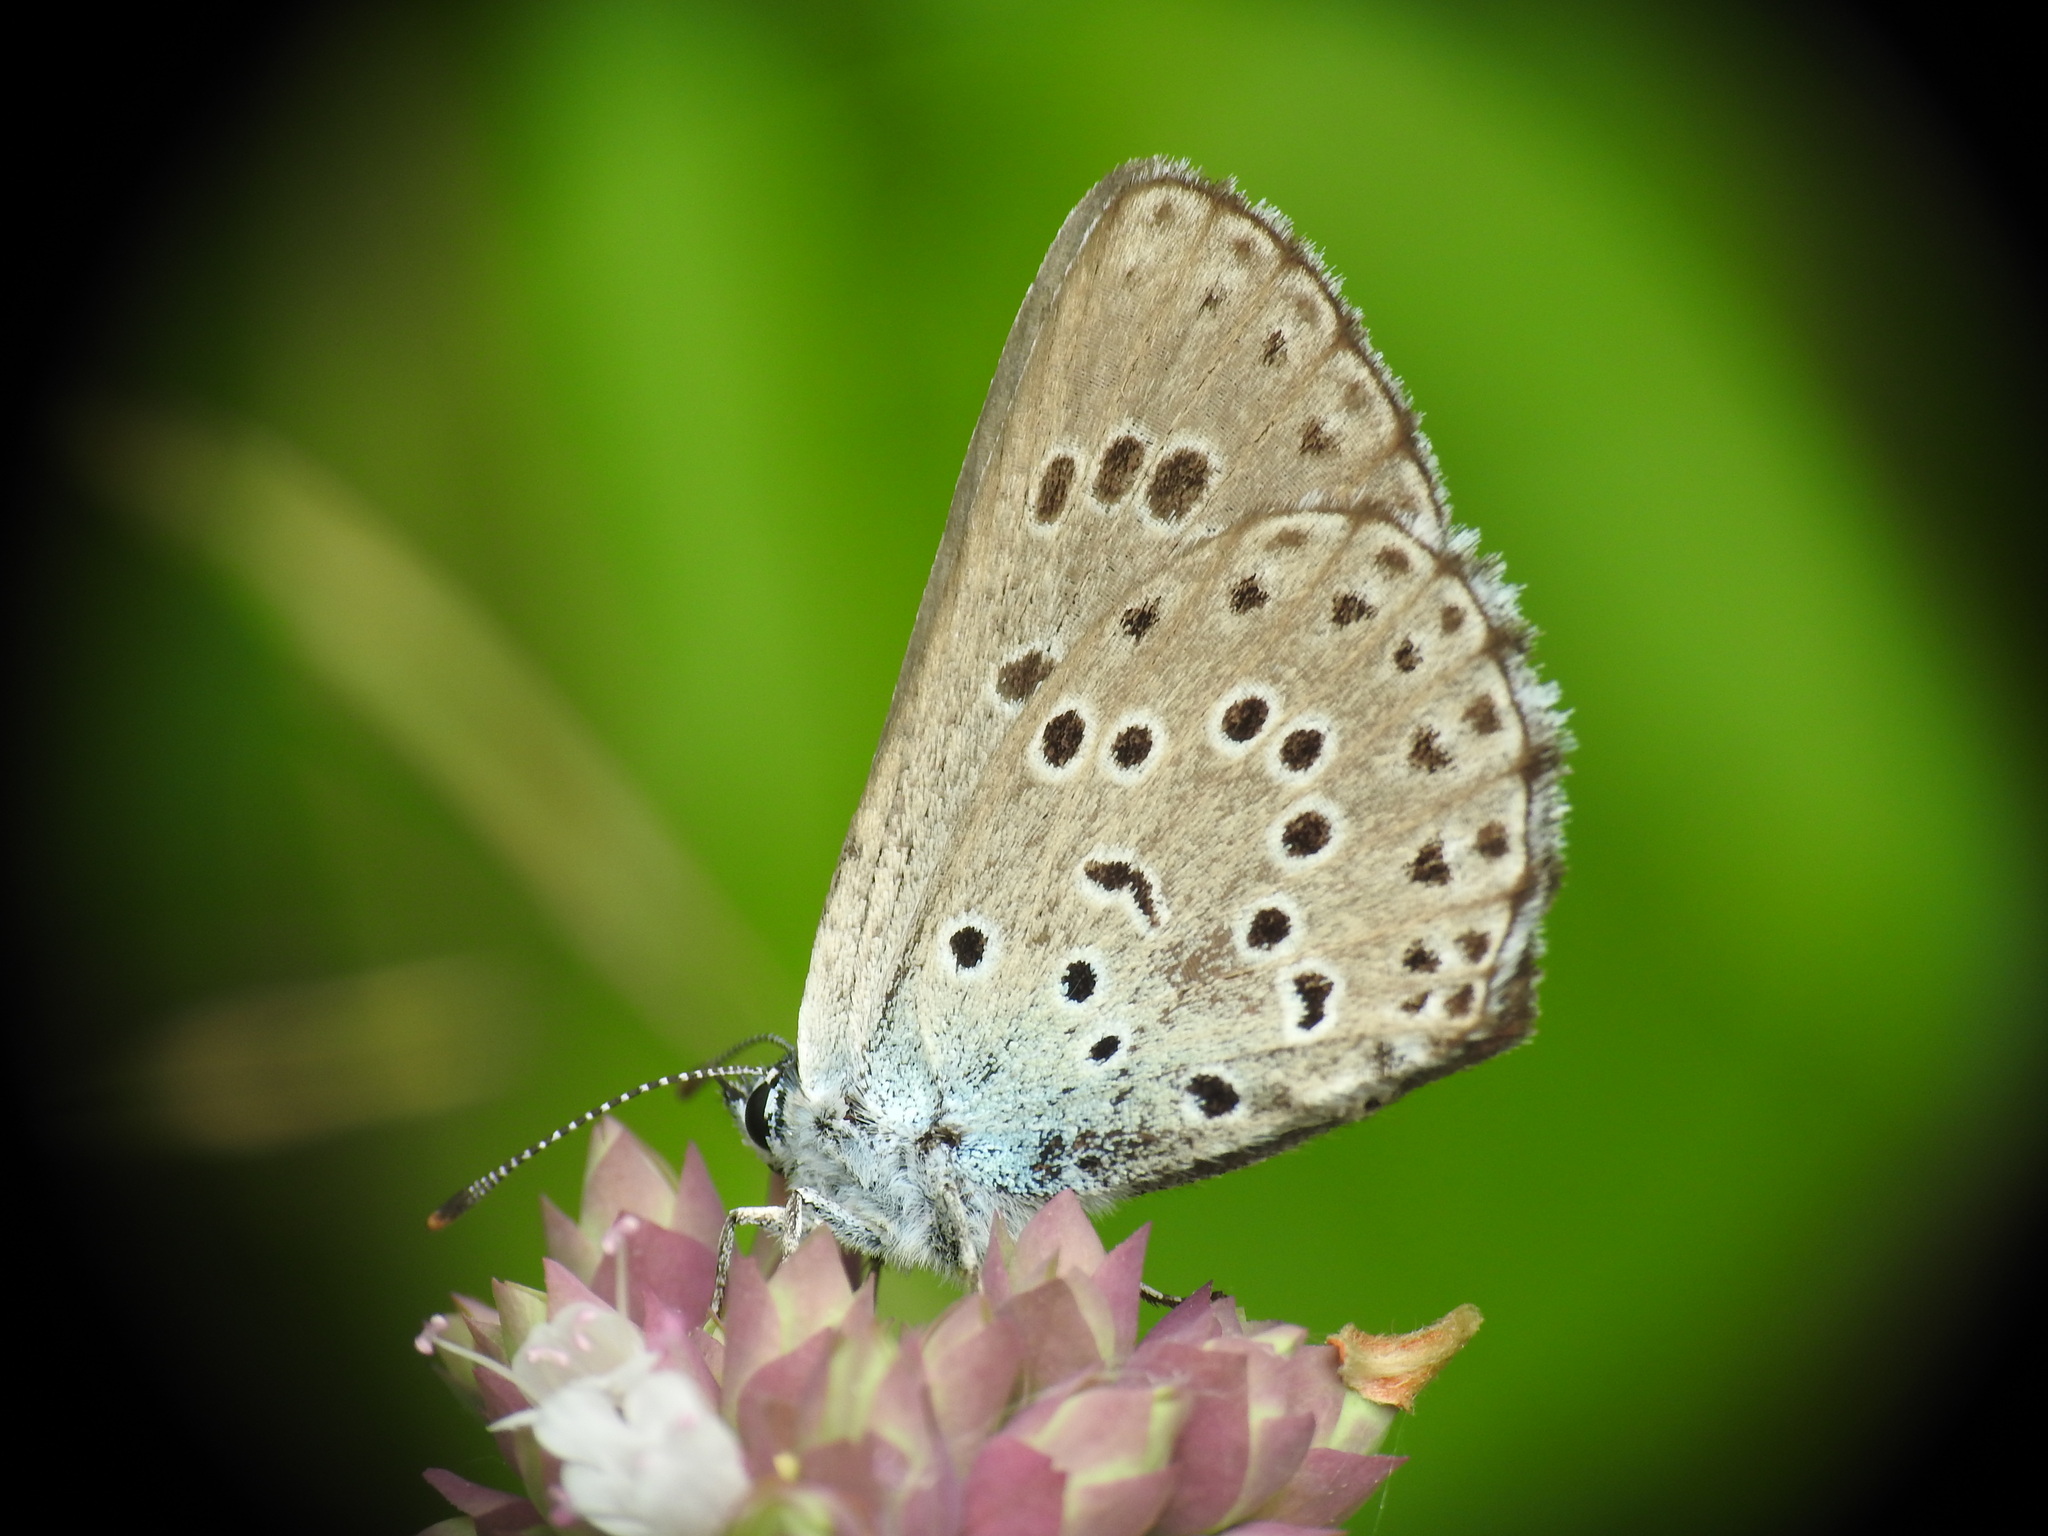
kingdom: Animalia
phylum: Arthropoda
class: Insecta
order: Lepidoptera
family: Lycaenidae
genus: Maculinea
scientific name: Maculinea arion
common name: Large blue
